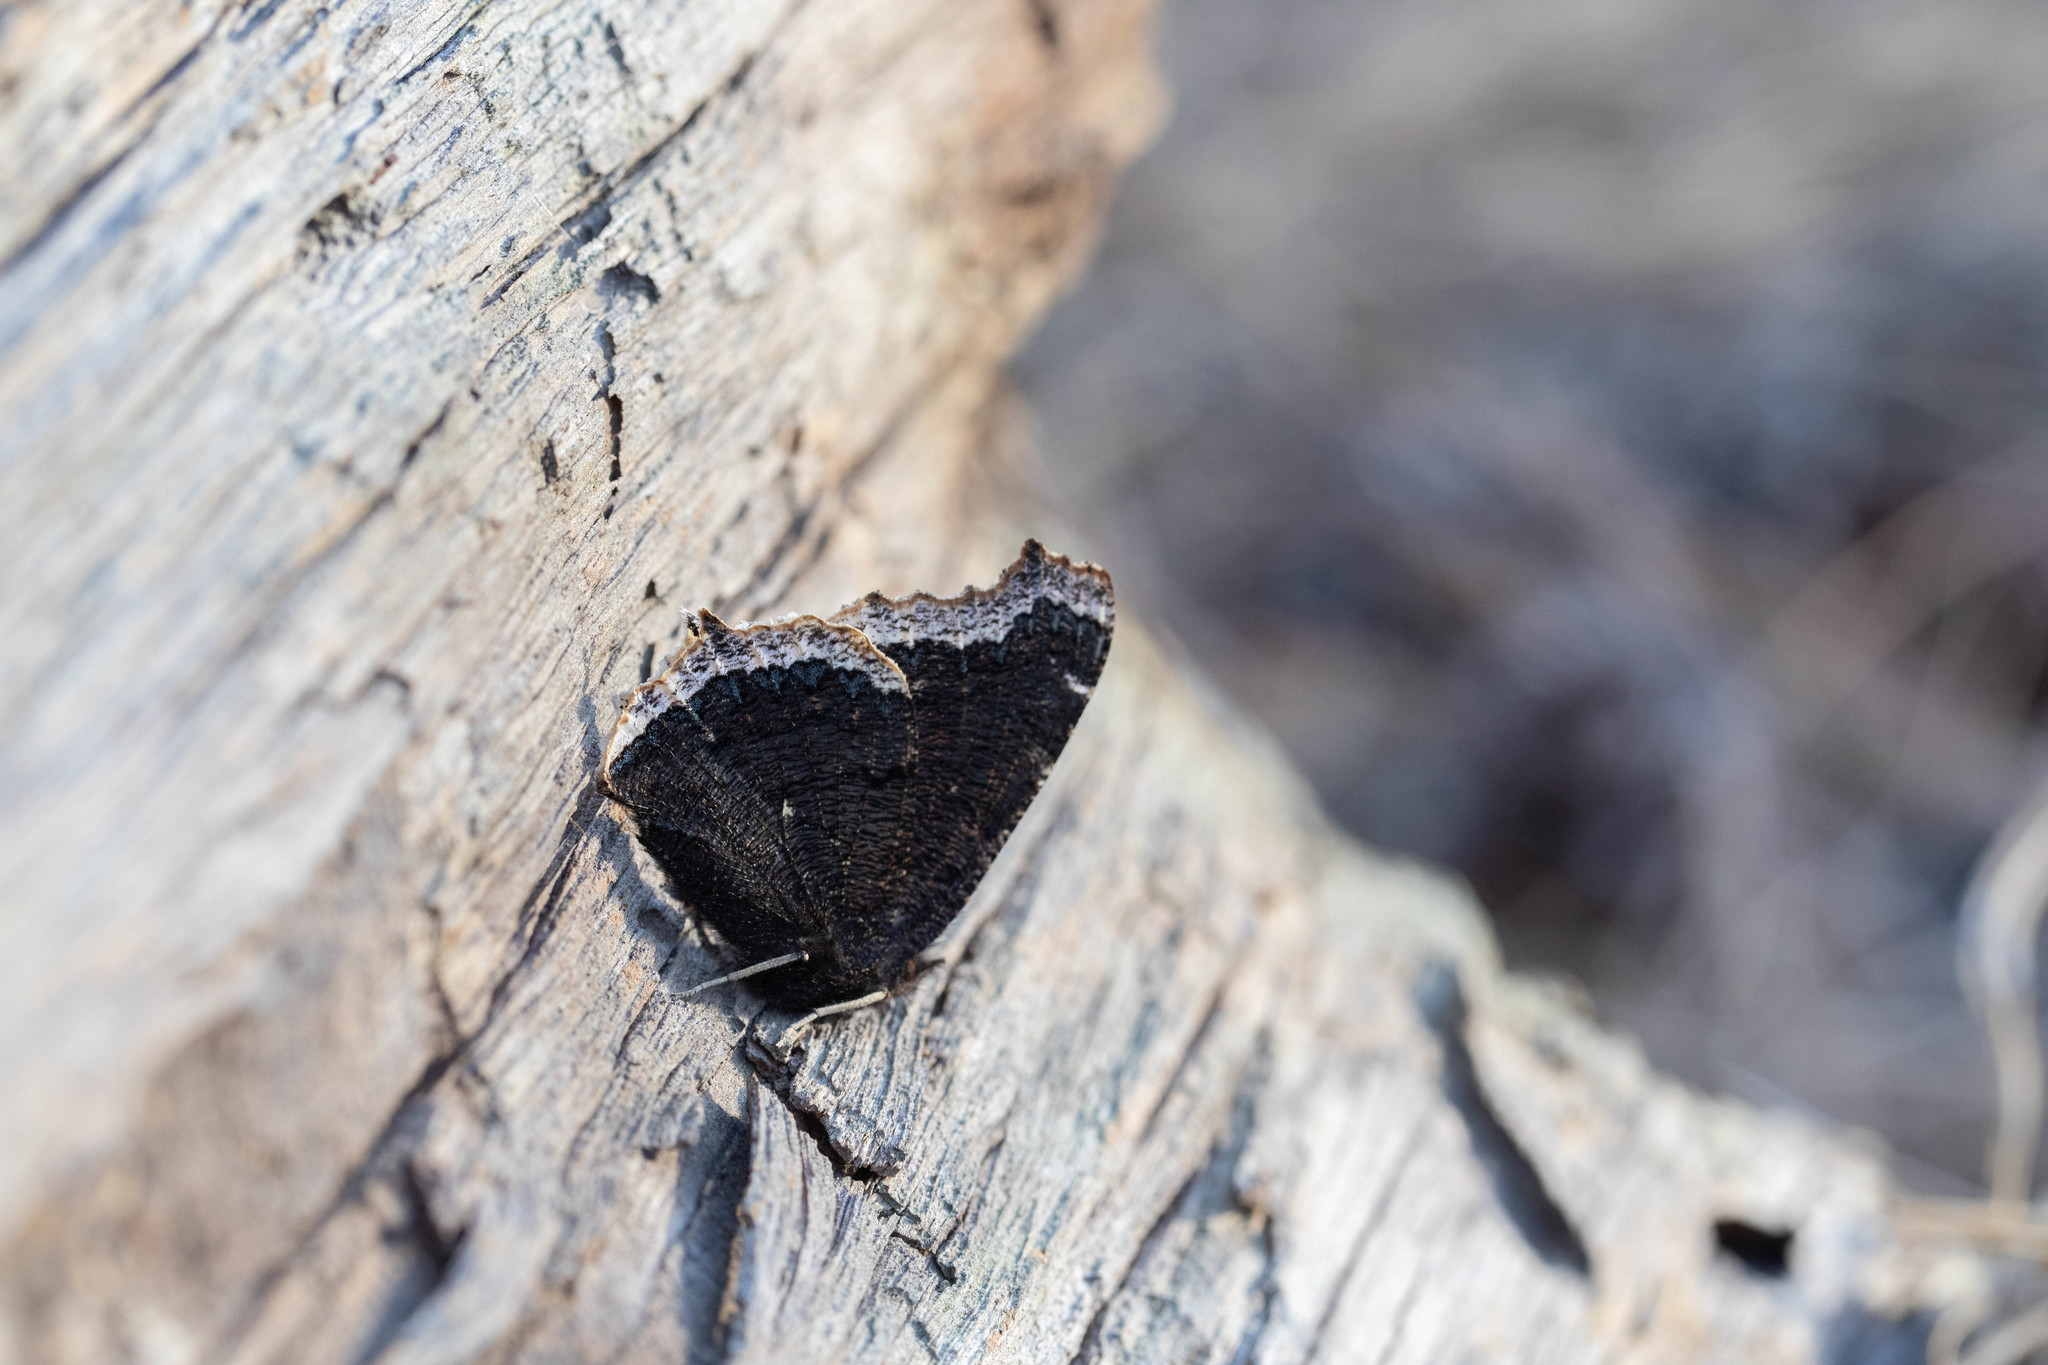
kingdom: Animalia
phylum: Arthropoda
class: Insecta
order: Lepidoptera
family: Nymphalidae
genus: Nymphalis
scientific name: Nymphalis antiopa
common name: Camberwell beauty
